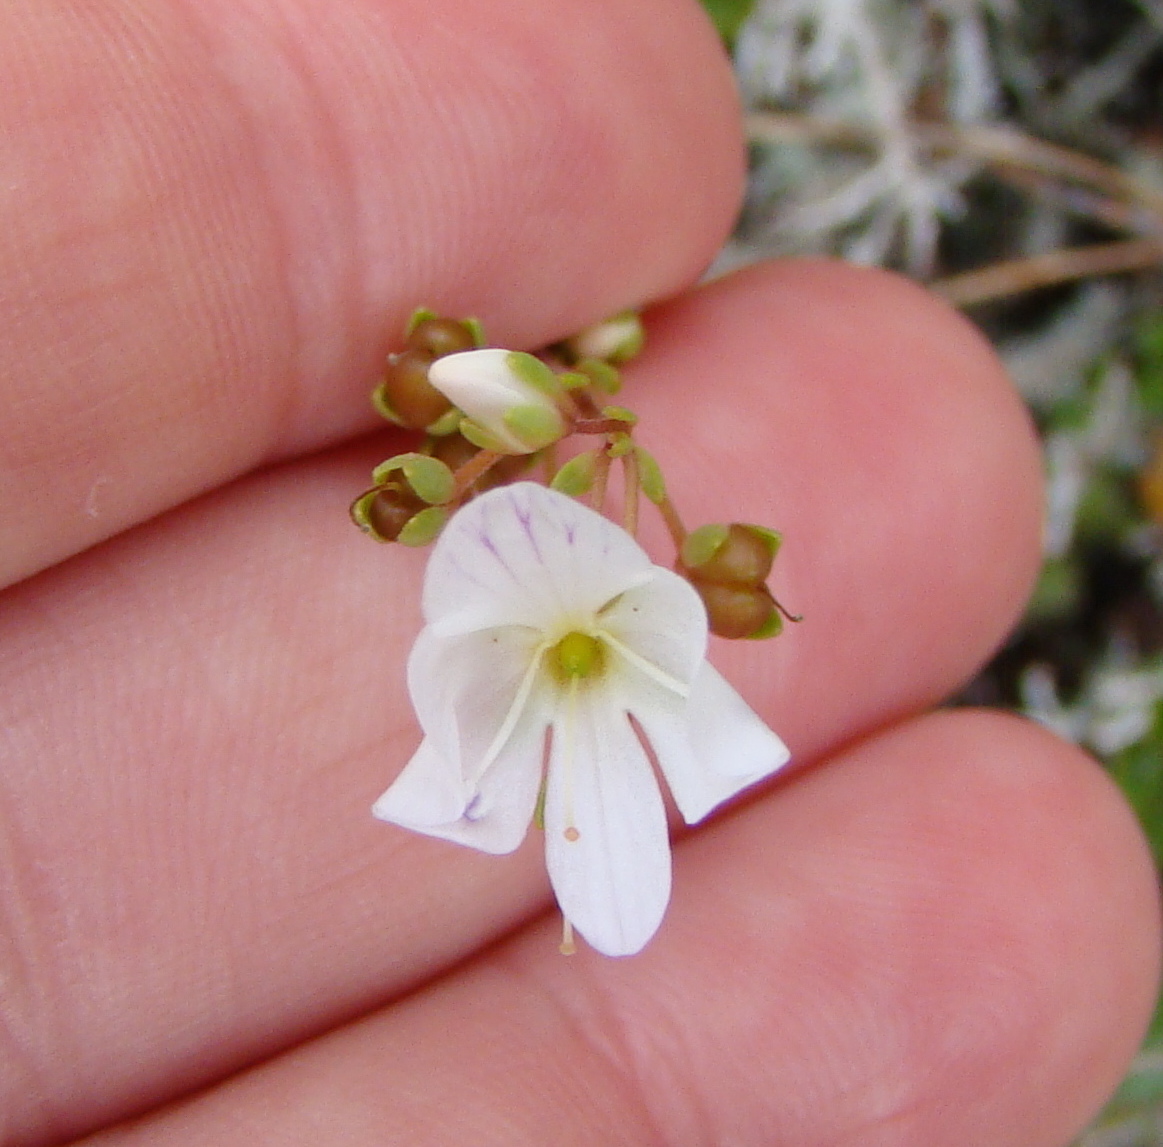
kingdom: Plantae
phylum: Tracheophyta
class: Magnoliopsida
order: Lamiales
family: Plantaginaceae
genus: Veronica
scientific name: Veronica
